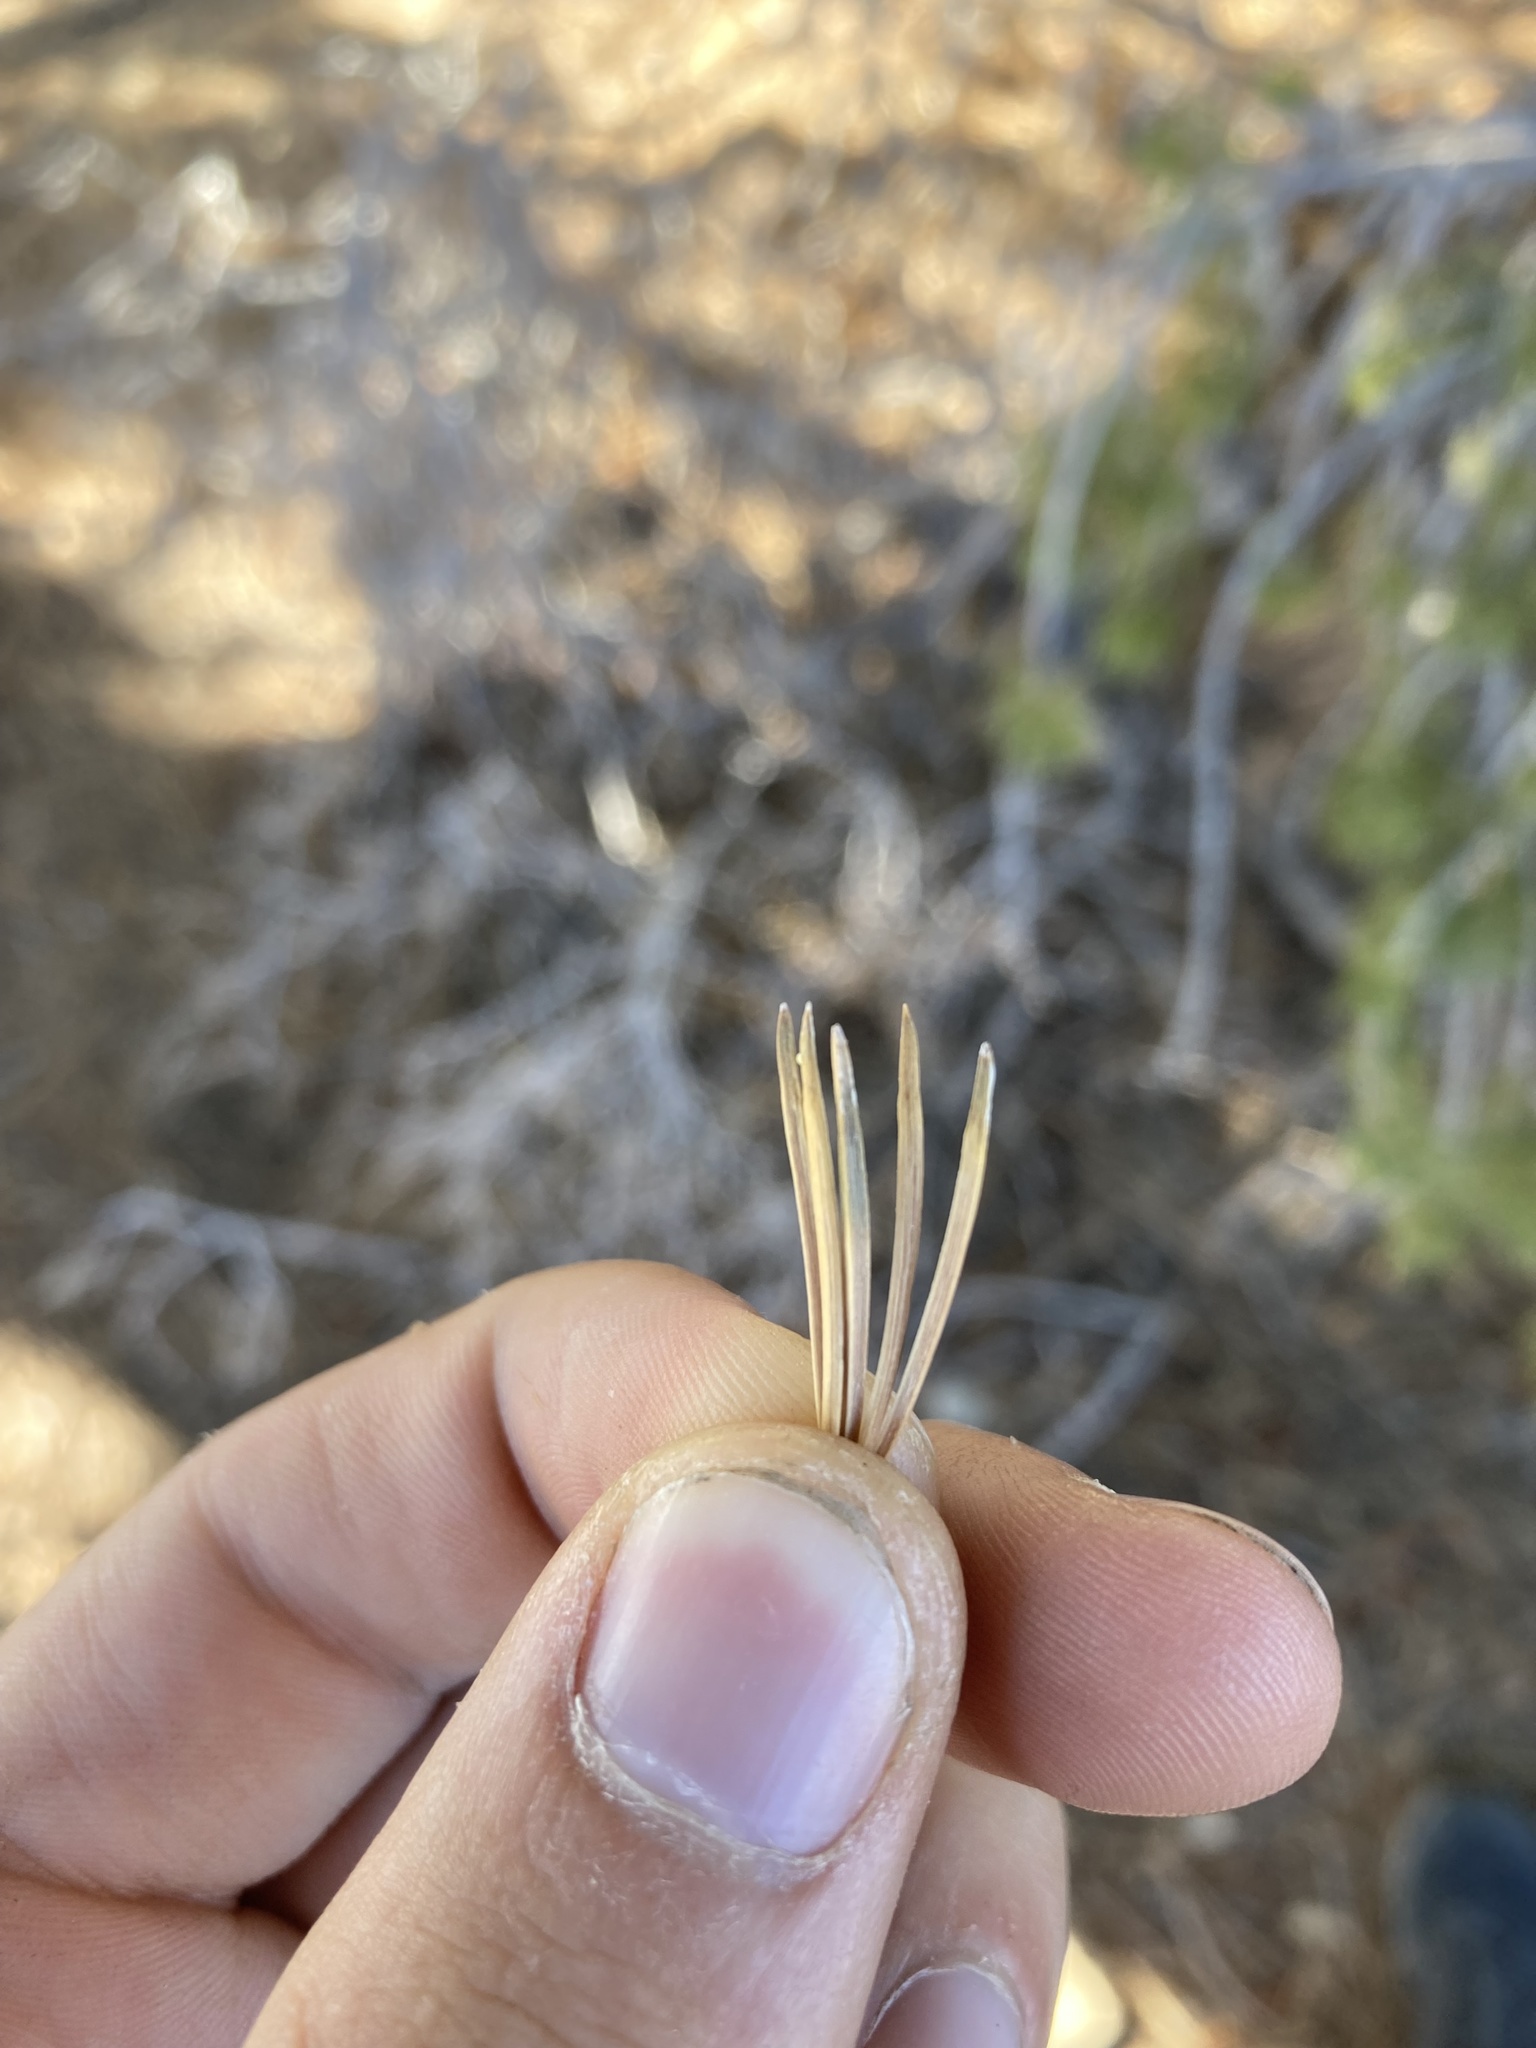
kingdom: Plantae
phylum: Tracheophyta
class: Pinopsida
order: Pinales
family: Pinaceae
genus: Pinus
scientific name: Pinus flexilis
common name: Limber pine
